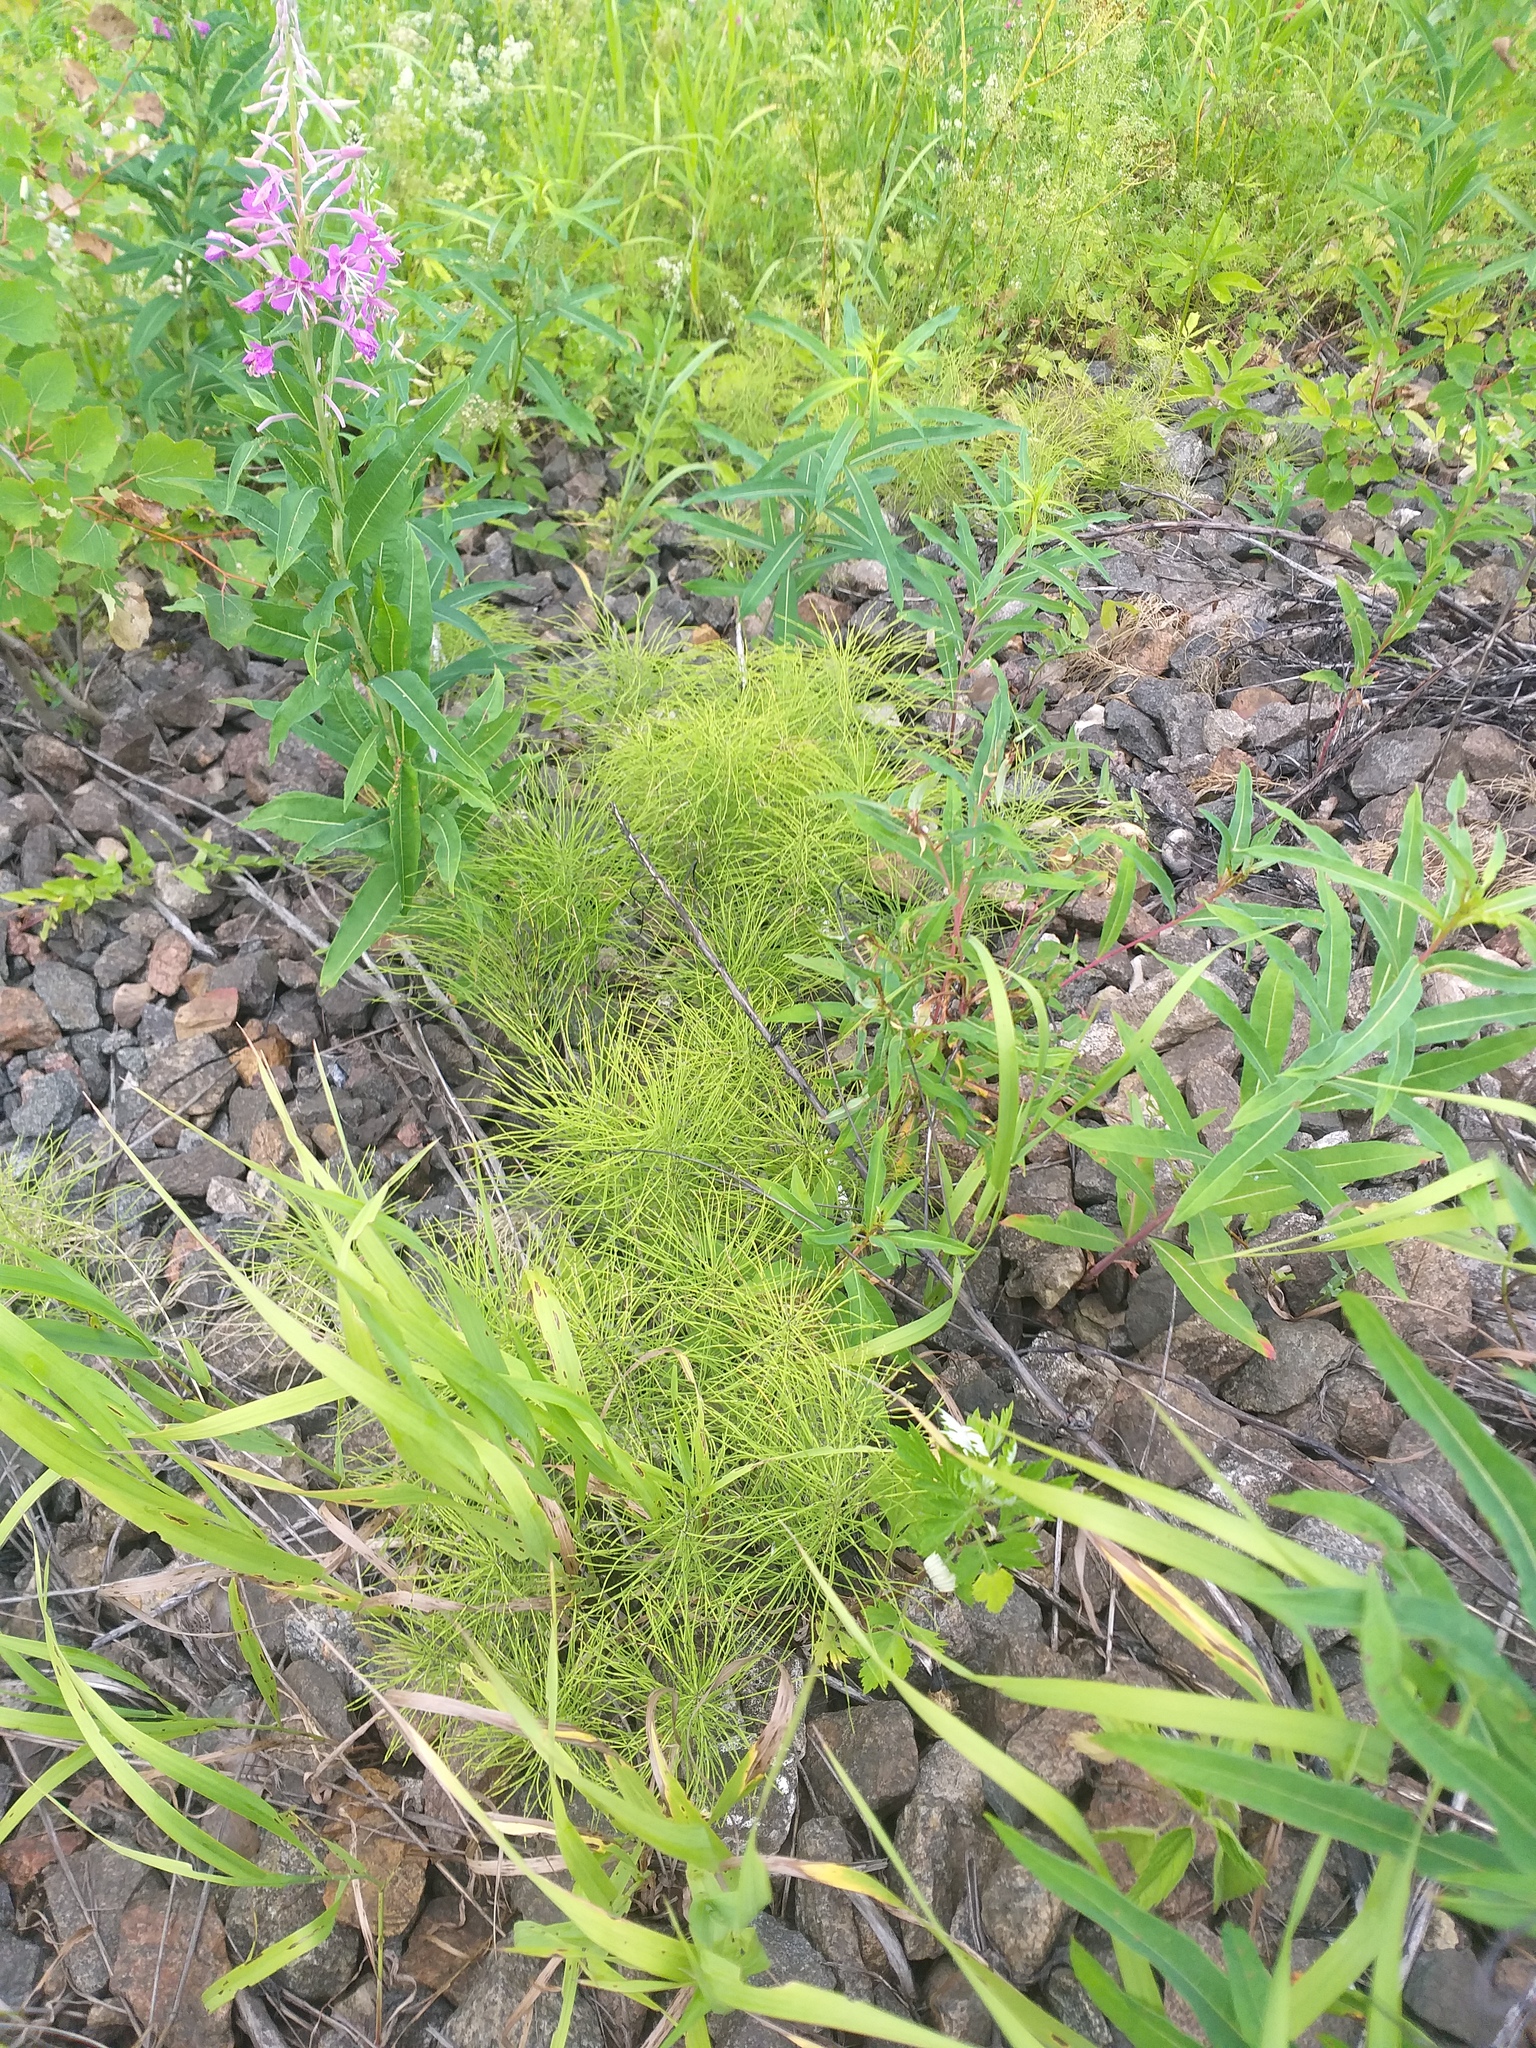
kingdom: Plantae
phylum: Tracheophyta
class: Polypodiopsida
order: Equisetales
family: Equisetaceae
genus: Equisetum
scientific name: Equisetum pratense
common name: Meadow horsetail
